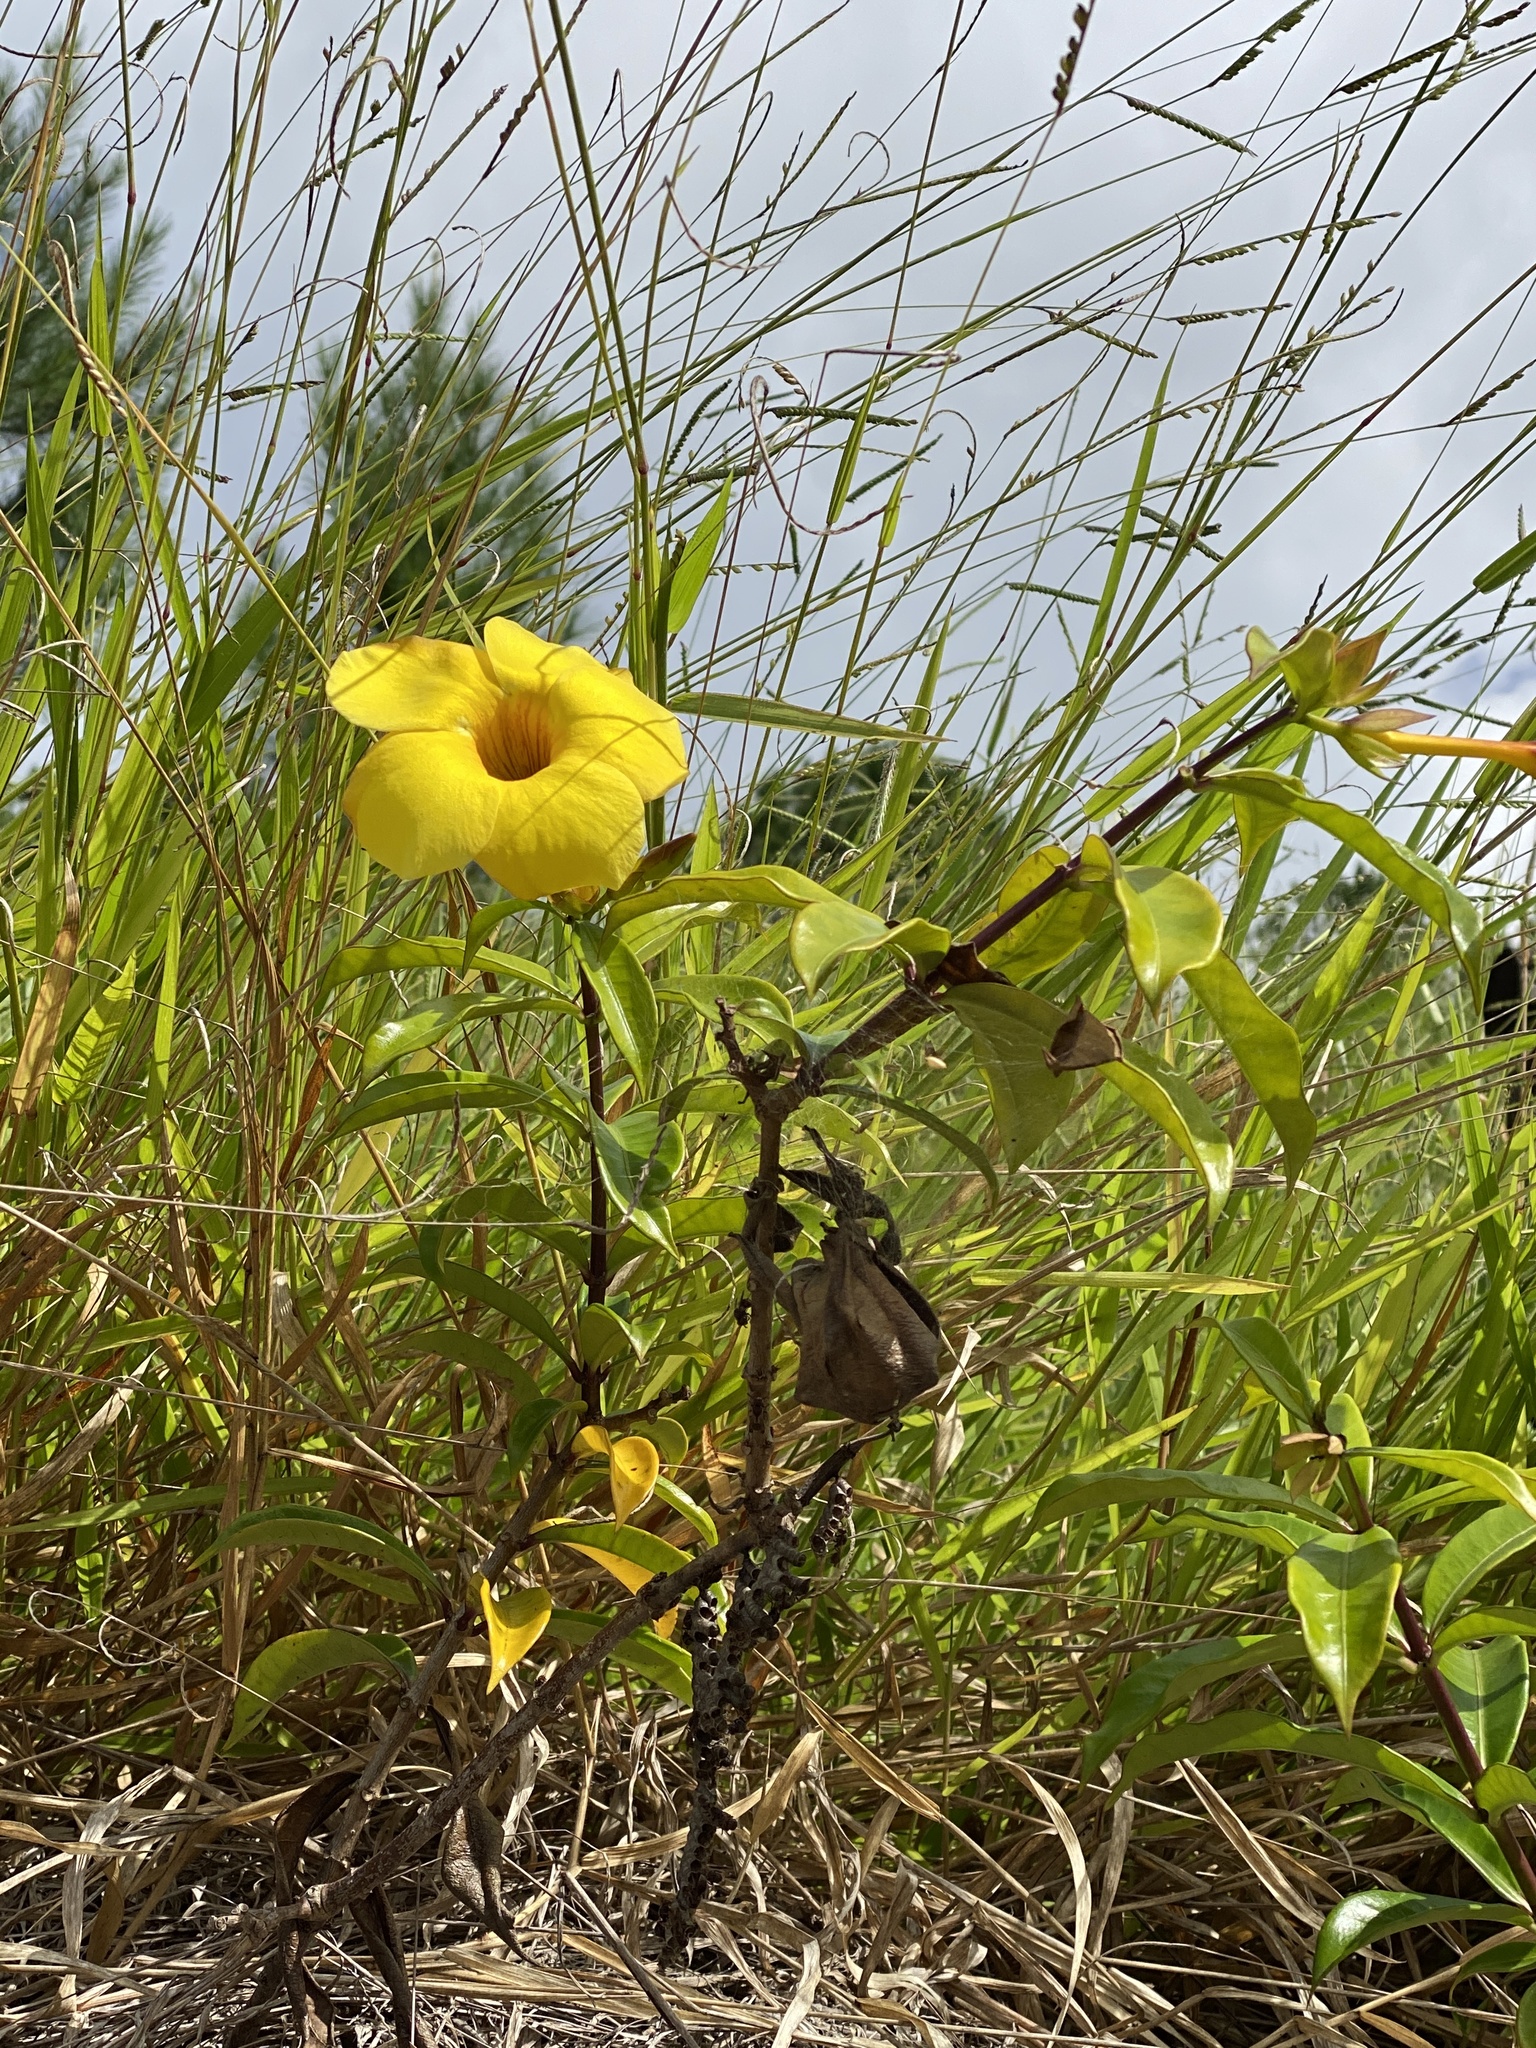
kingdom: Plantae
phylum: Tracheophyta
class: Magnoliopsida
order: Gentianales
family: Apocynaceae
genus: Allamanda
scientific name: Allamanda cathartica
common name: Golden trumpet
